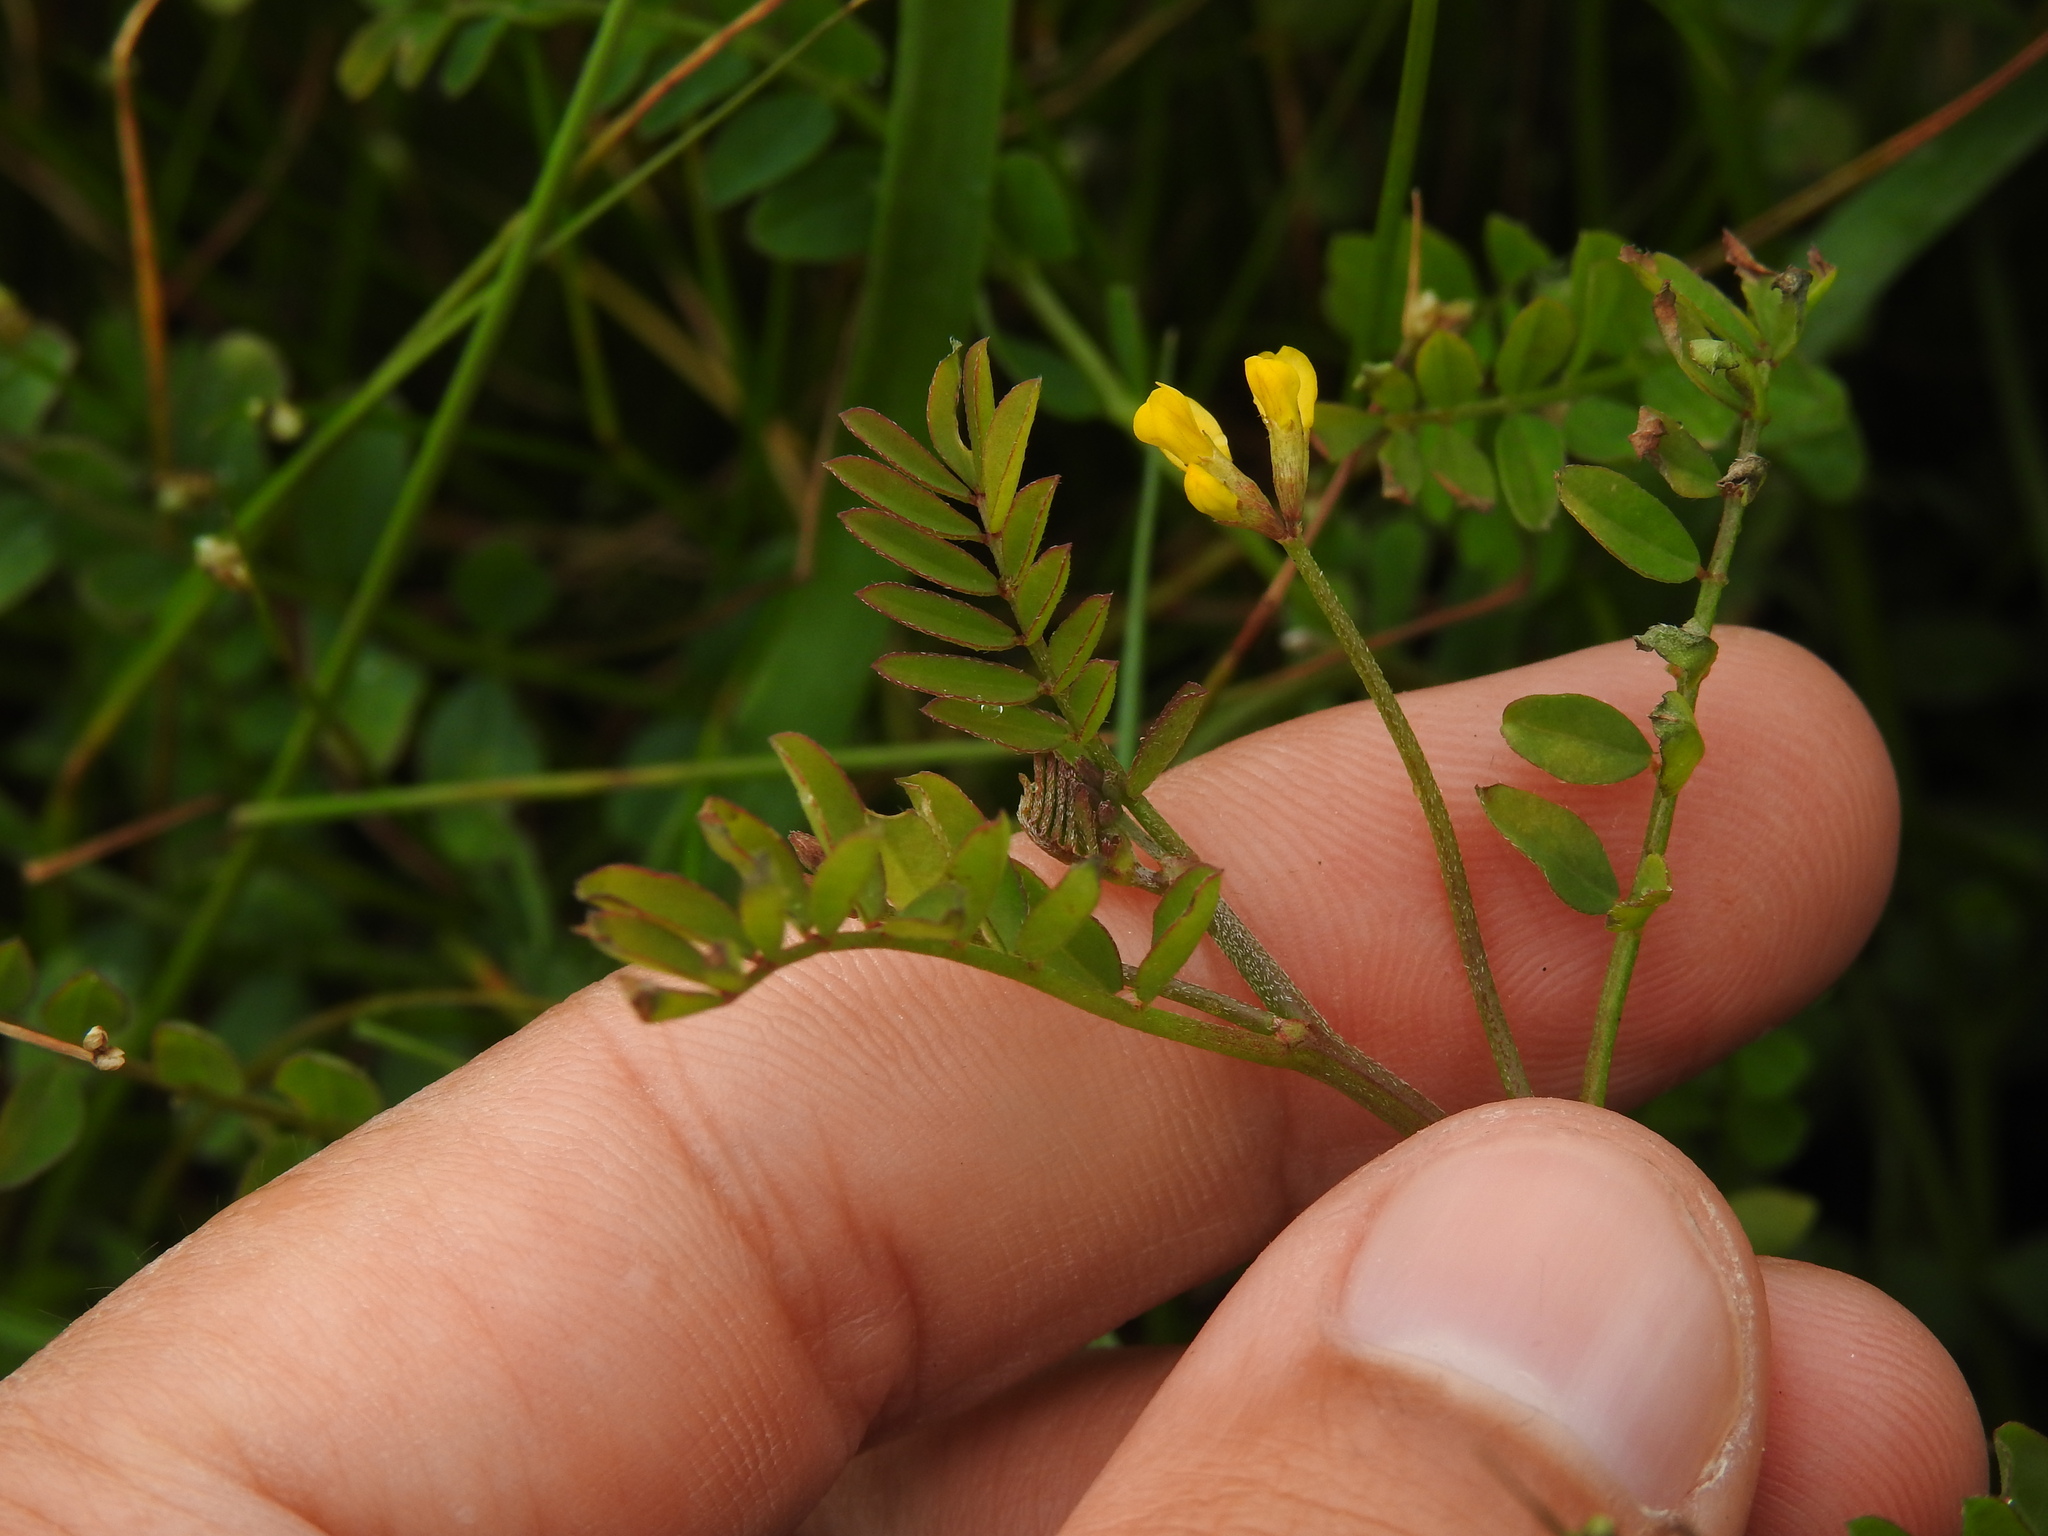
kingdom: Plantae
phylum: Tracheophyta
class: Magnoliopsida
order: Fabales
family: Fabaceae
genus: Ornithopus
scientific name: Ornithopus pinnatus
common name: Orange bird's-foot
